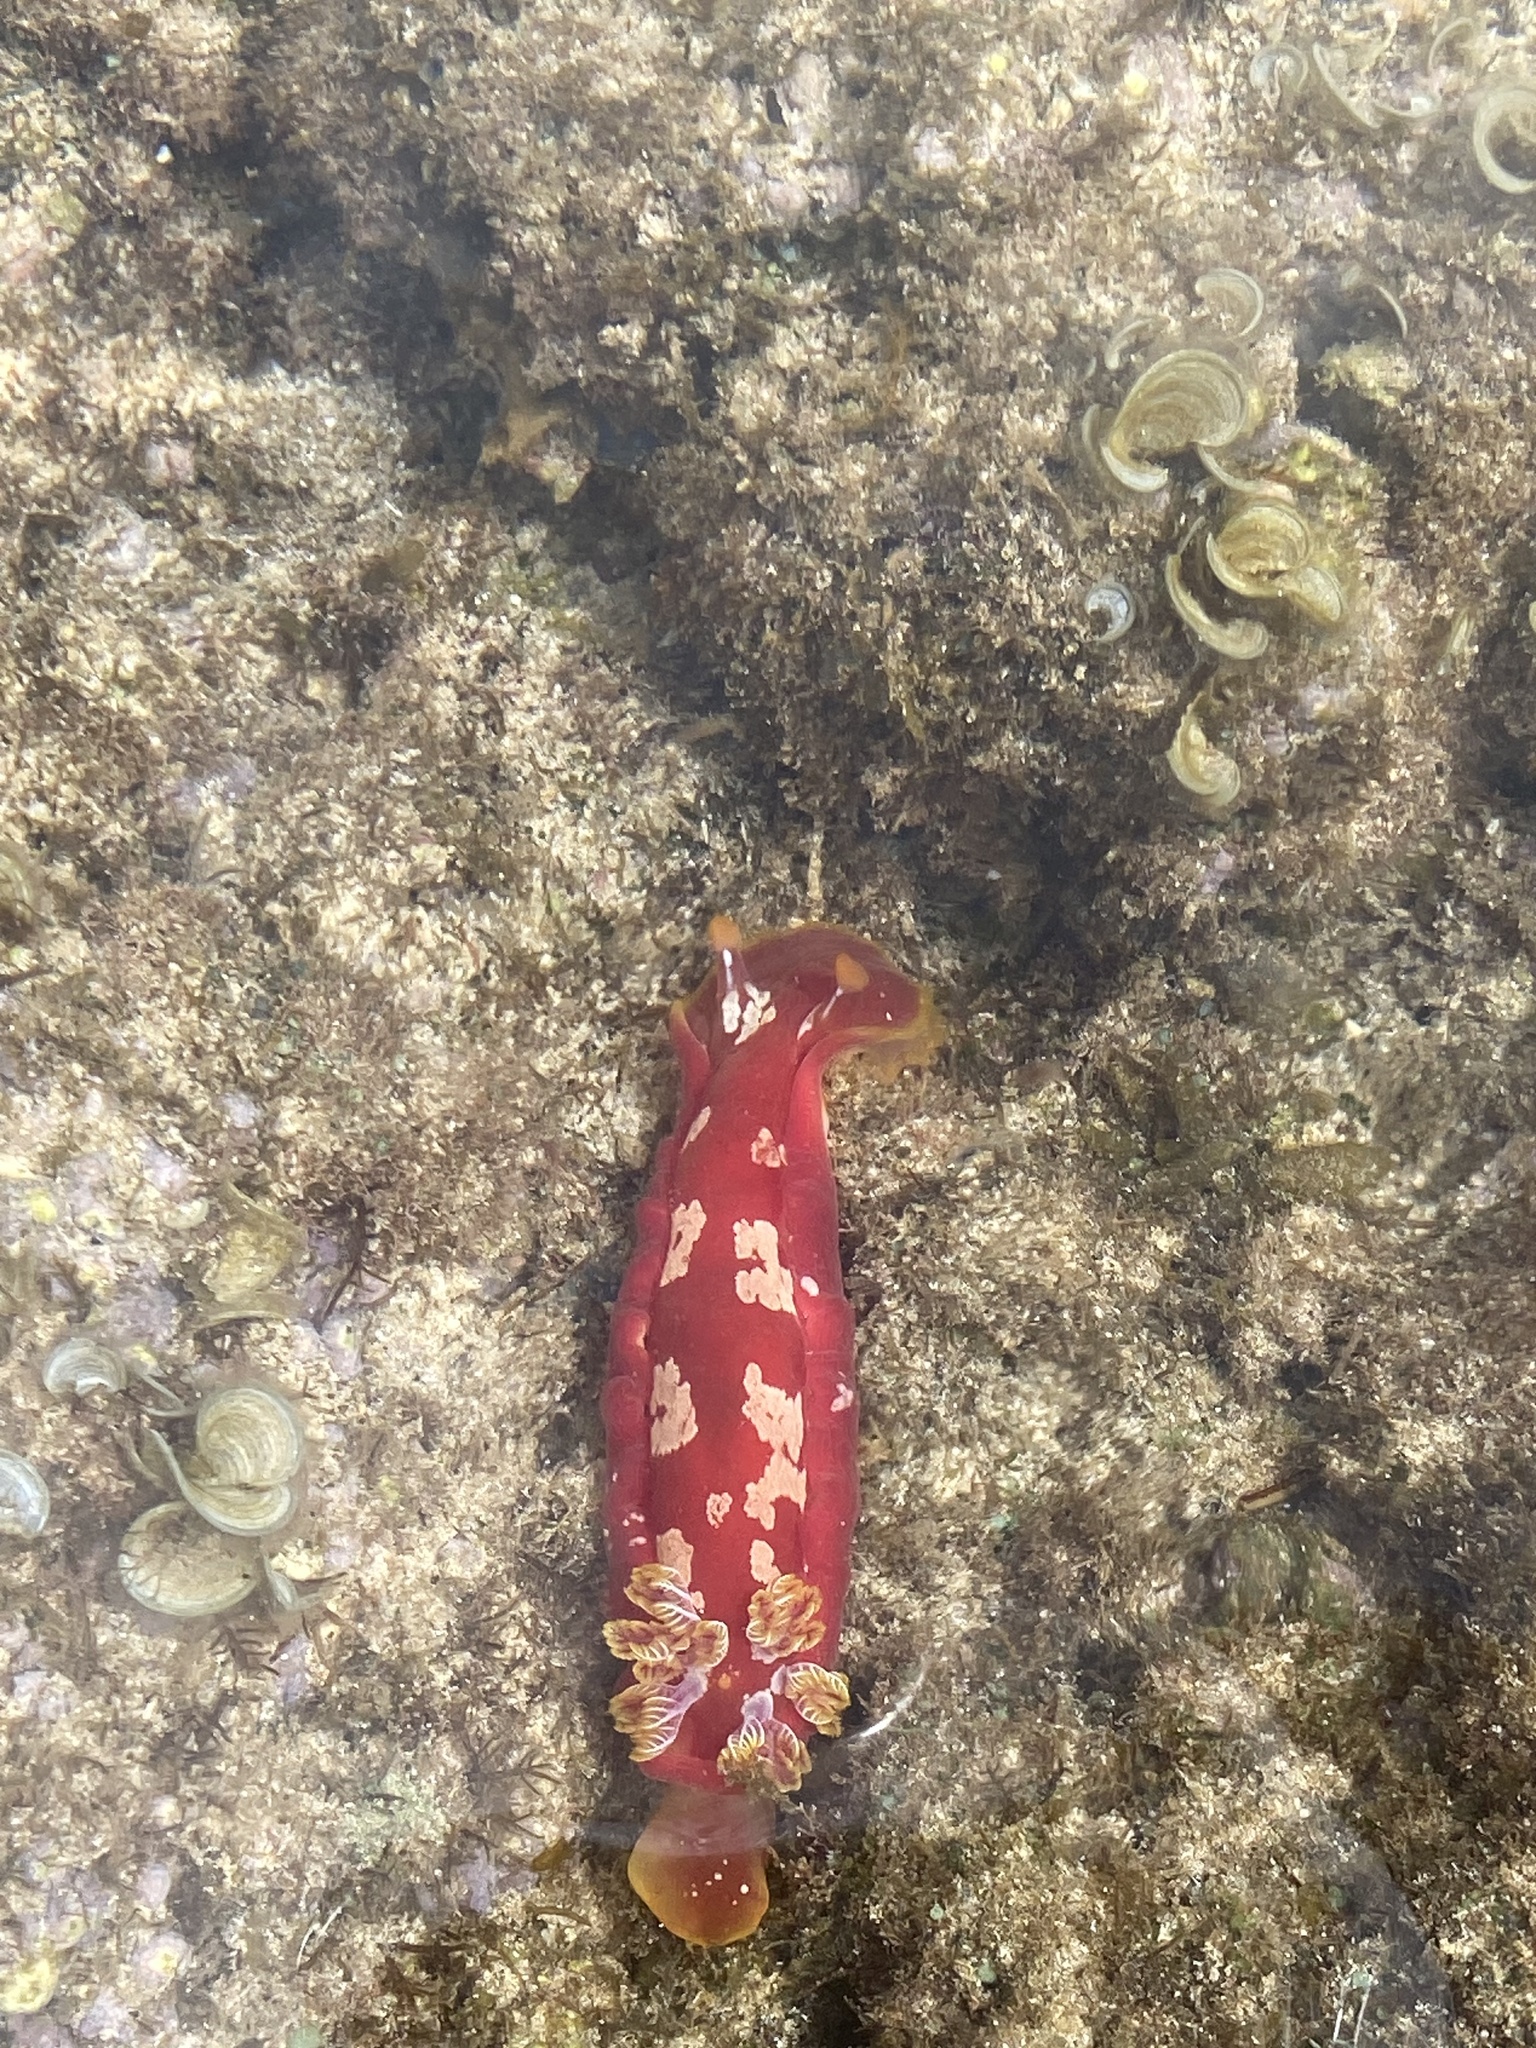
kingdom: Animalia
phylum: Mollusca
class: Gastropoda
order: Nudibranchia
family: Hexabranchidae
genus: Hexabranchus
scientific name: Hexabranchus aureomarginatus
